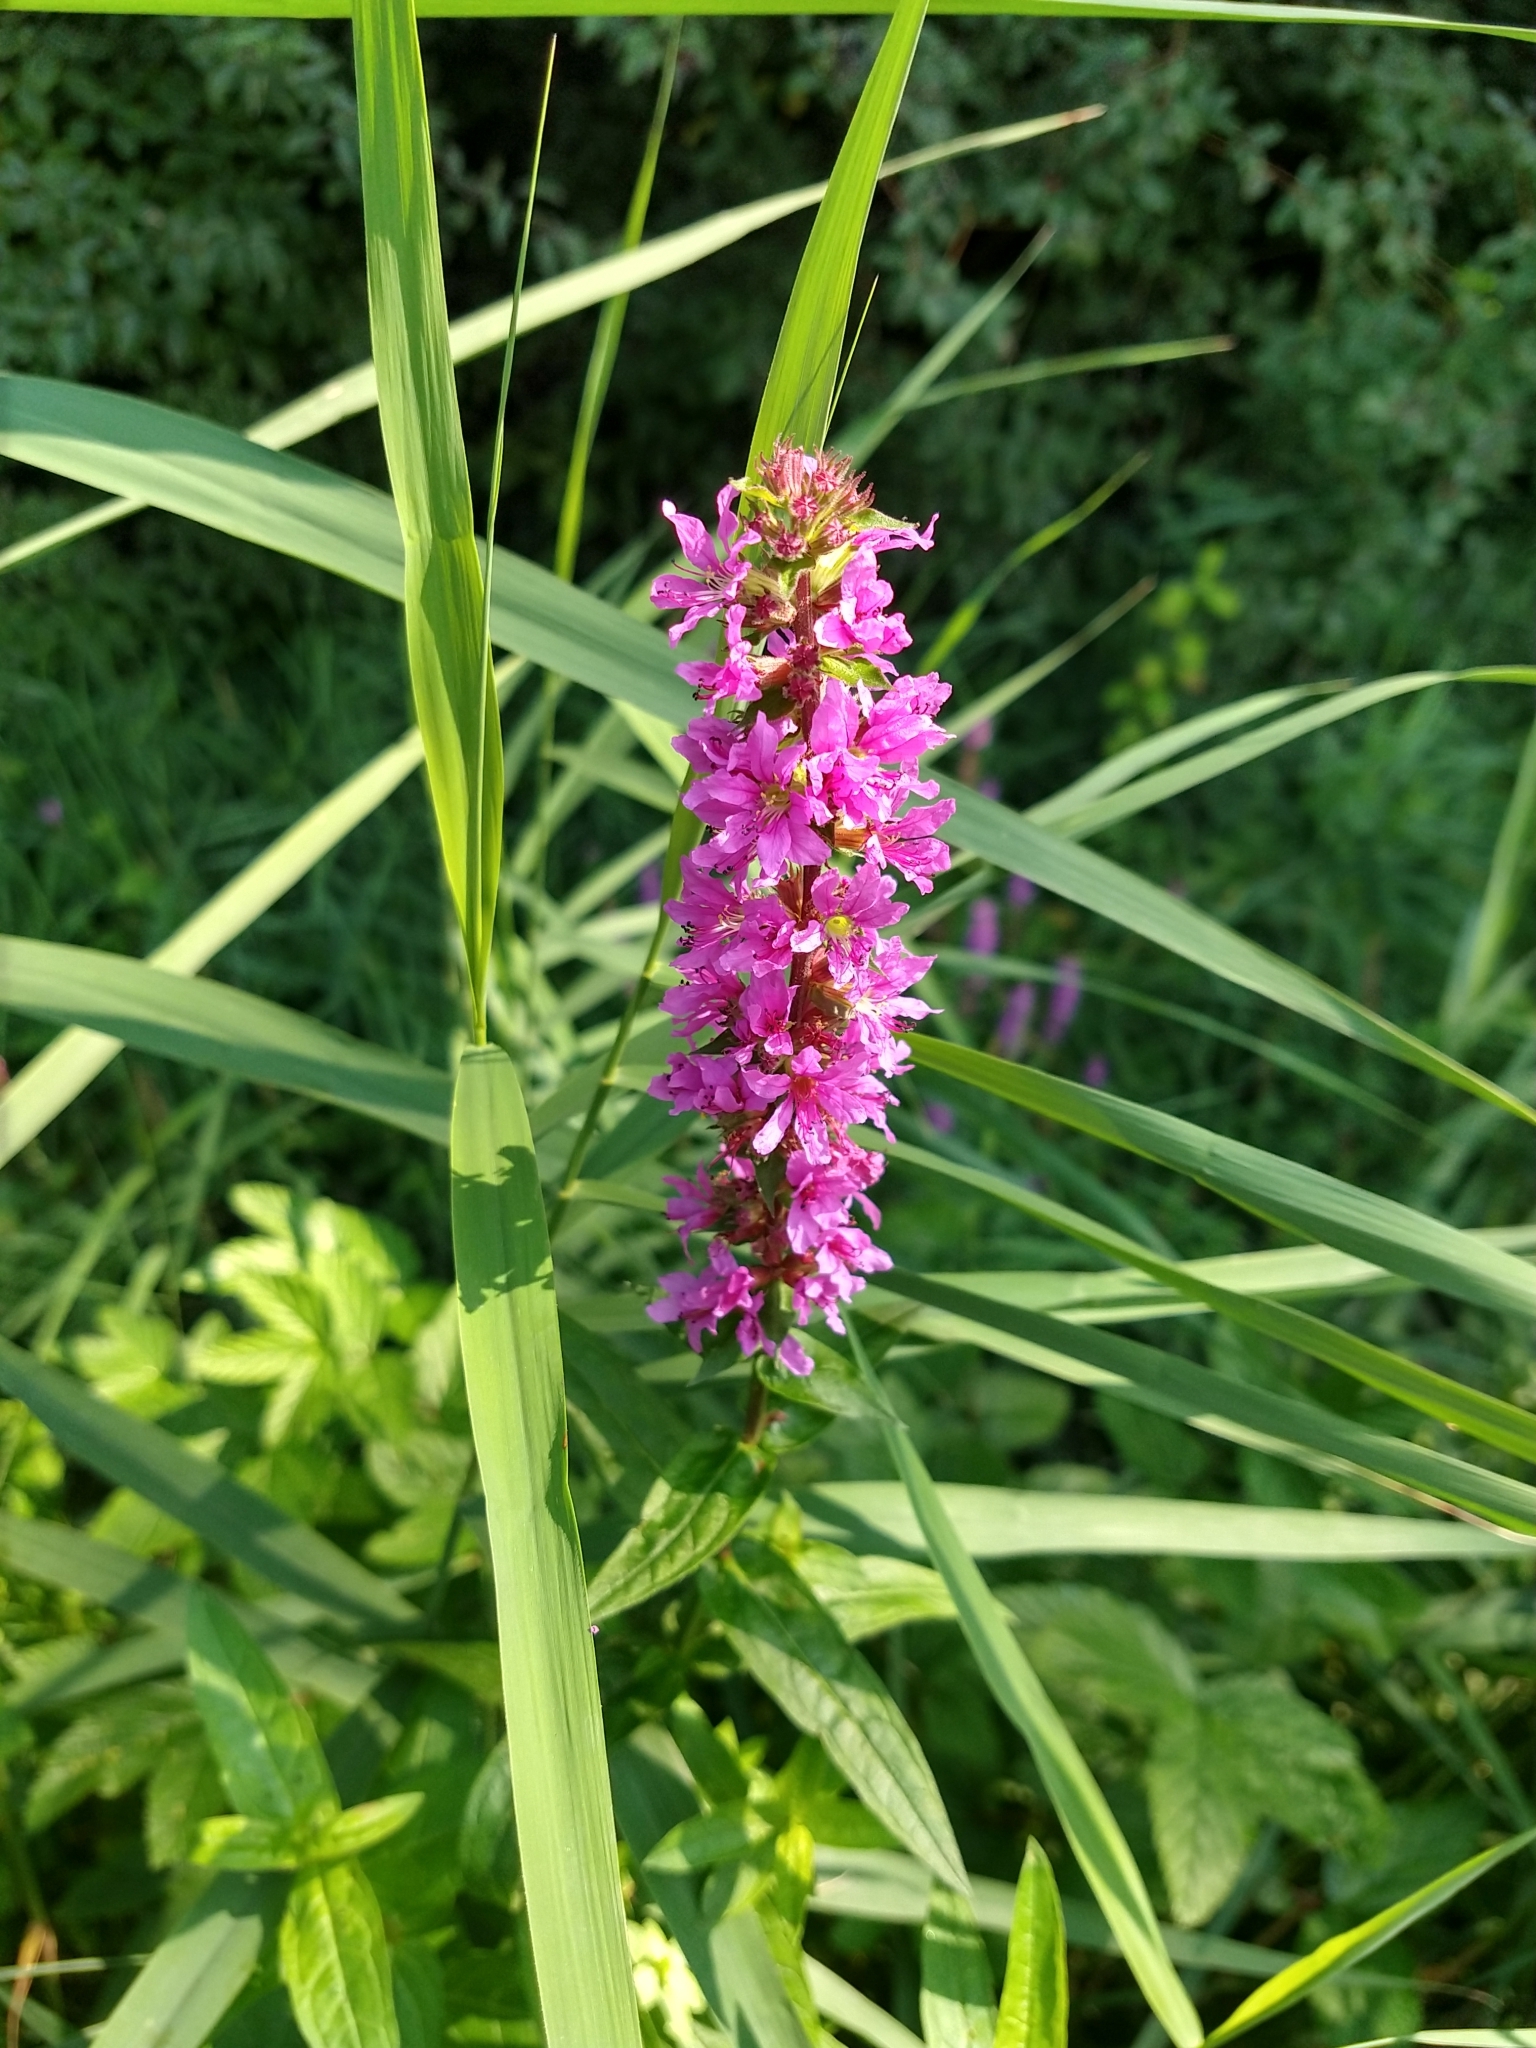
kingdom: Plantae
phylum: Tracheophyta
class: Magnoliopsida
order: Myrtales
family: Lythraceae
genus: Lythrum
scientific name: Lythrum salicaria
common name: Purple loosestrife
